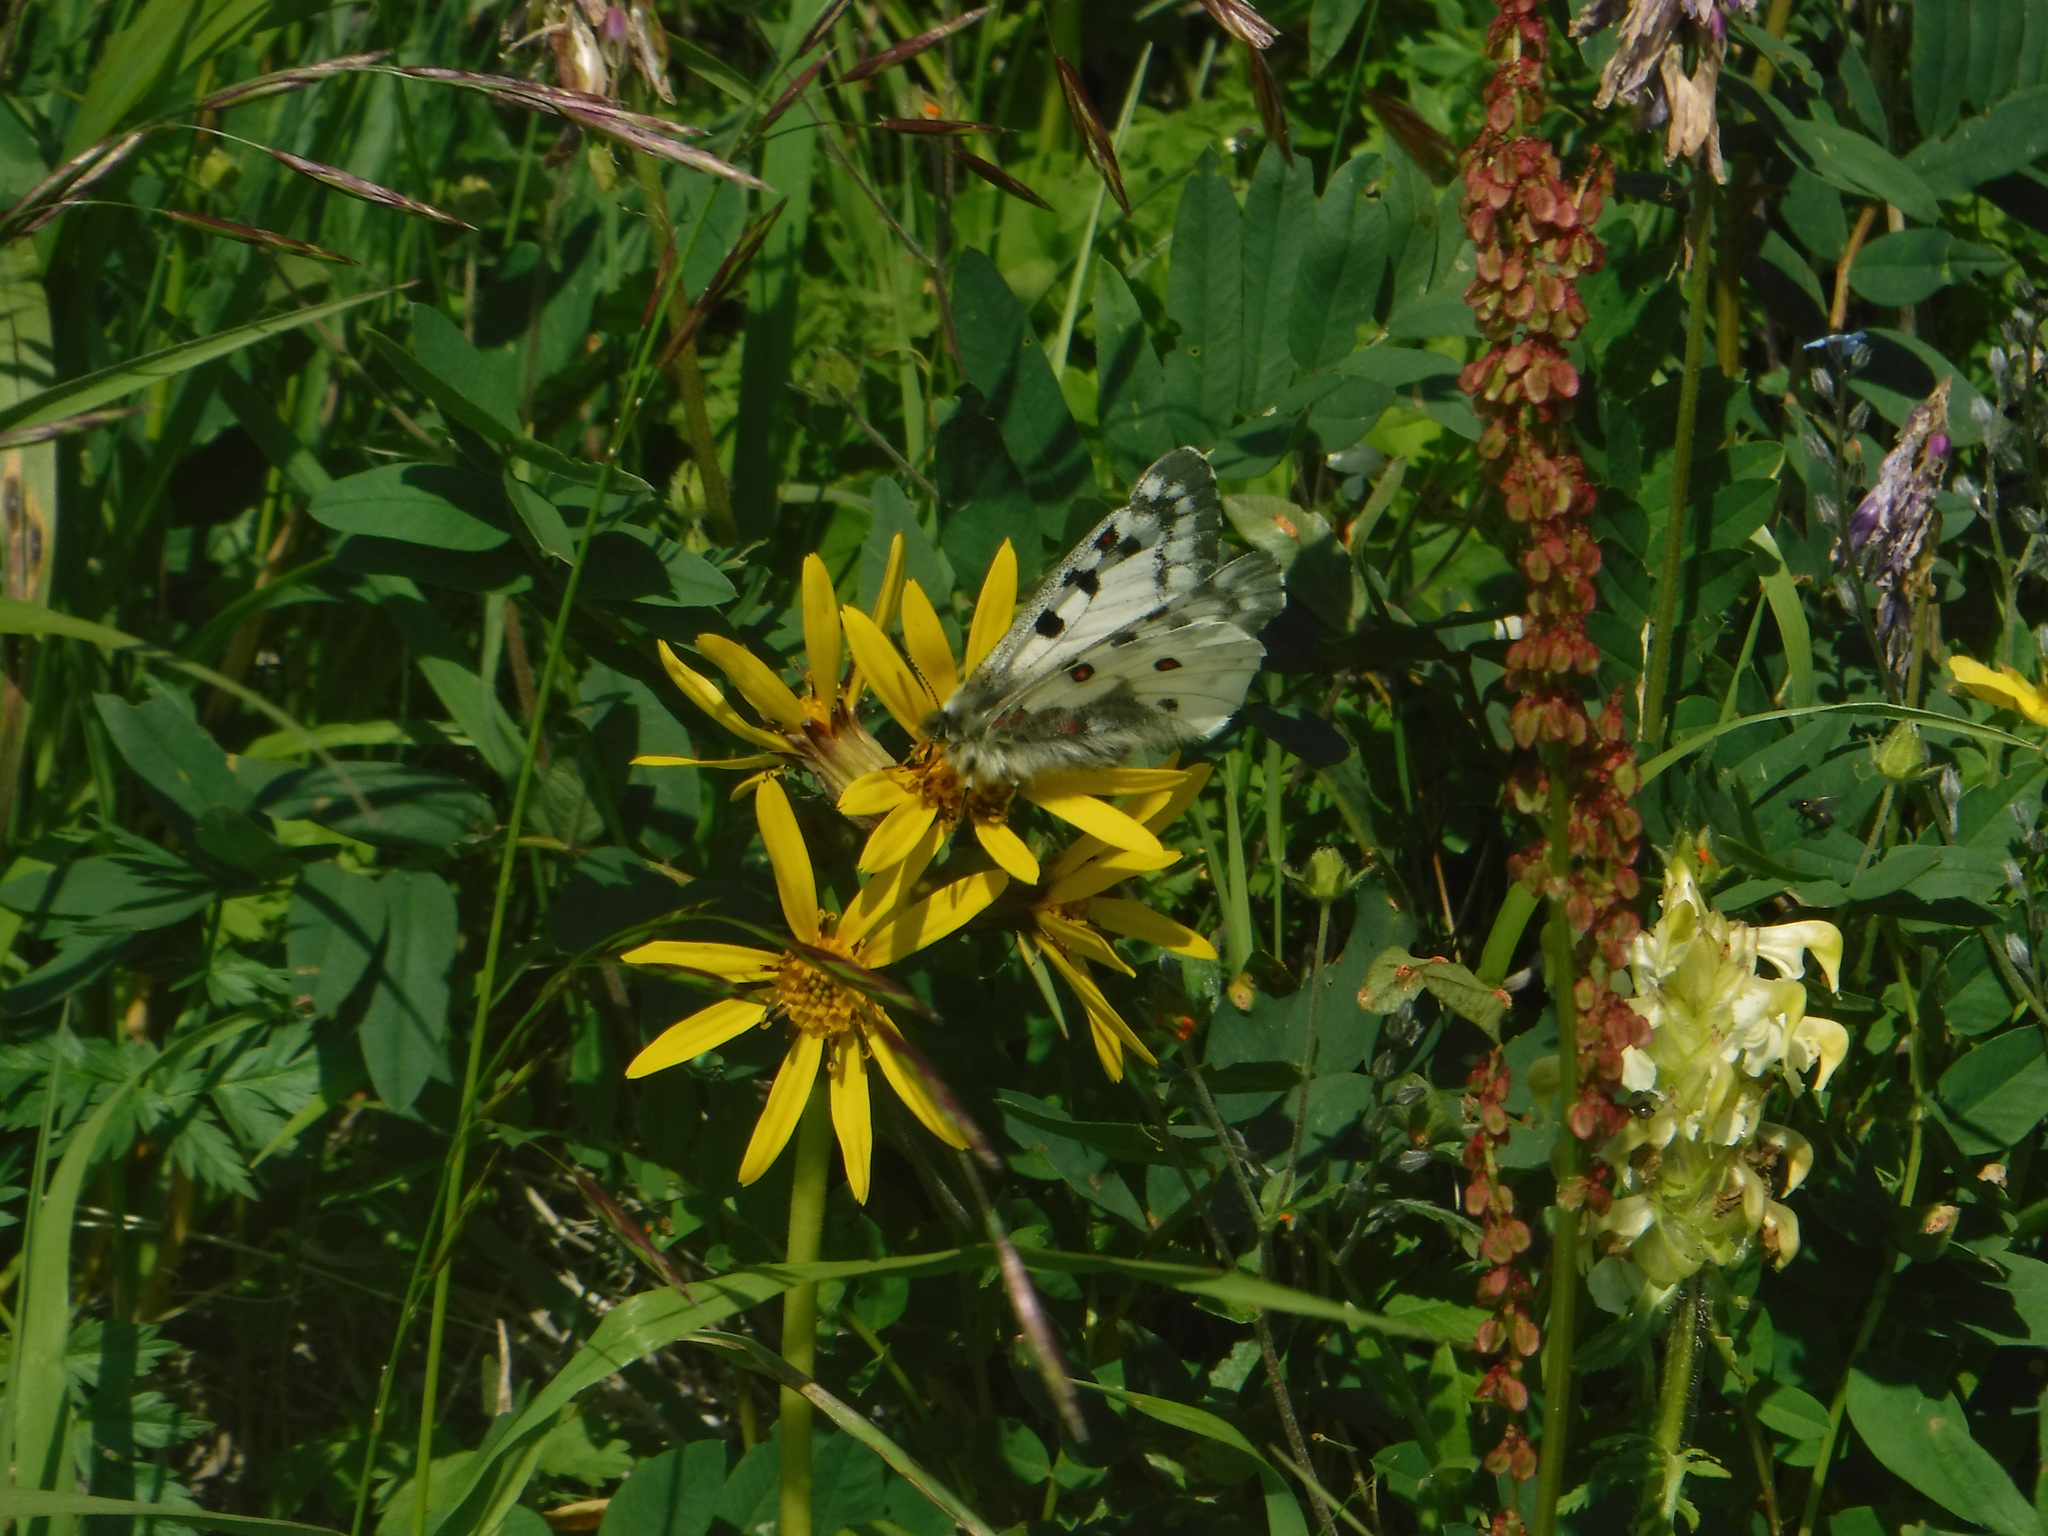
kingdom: Animalia
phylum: Arthropoda
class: Insecta
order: Lepidoptera
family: Papilionidae
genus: Parnassius
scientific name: Parnassius phoebus
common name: Small apollo
